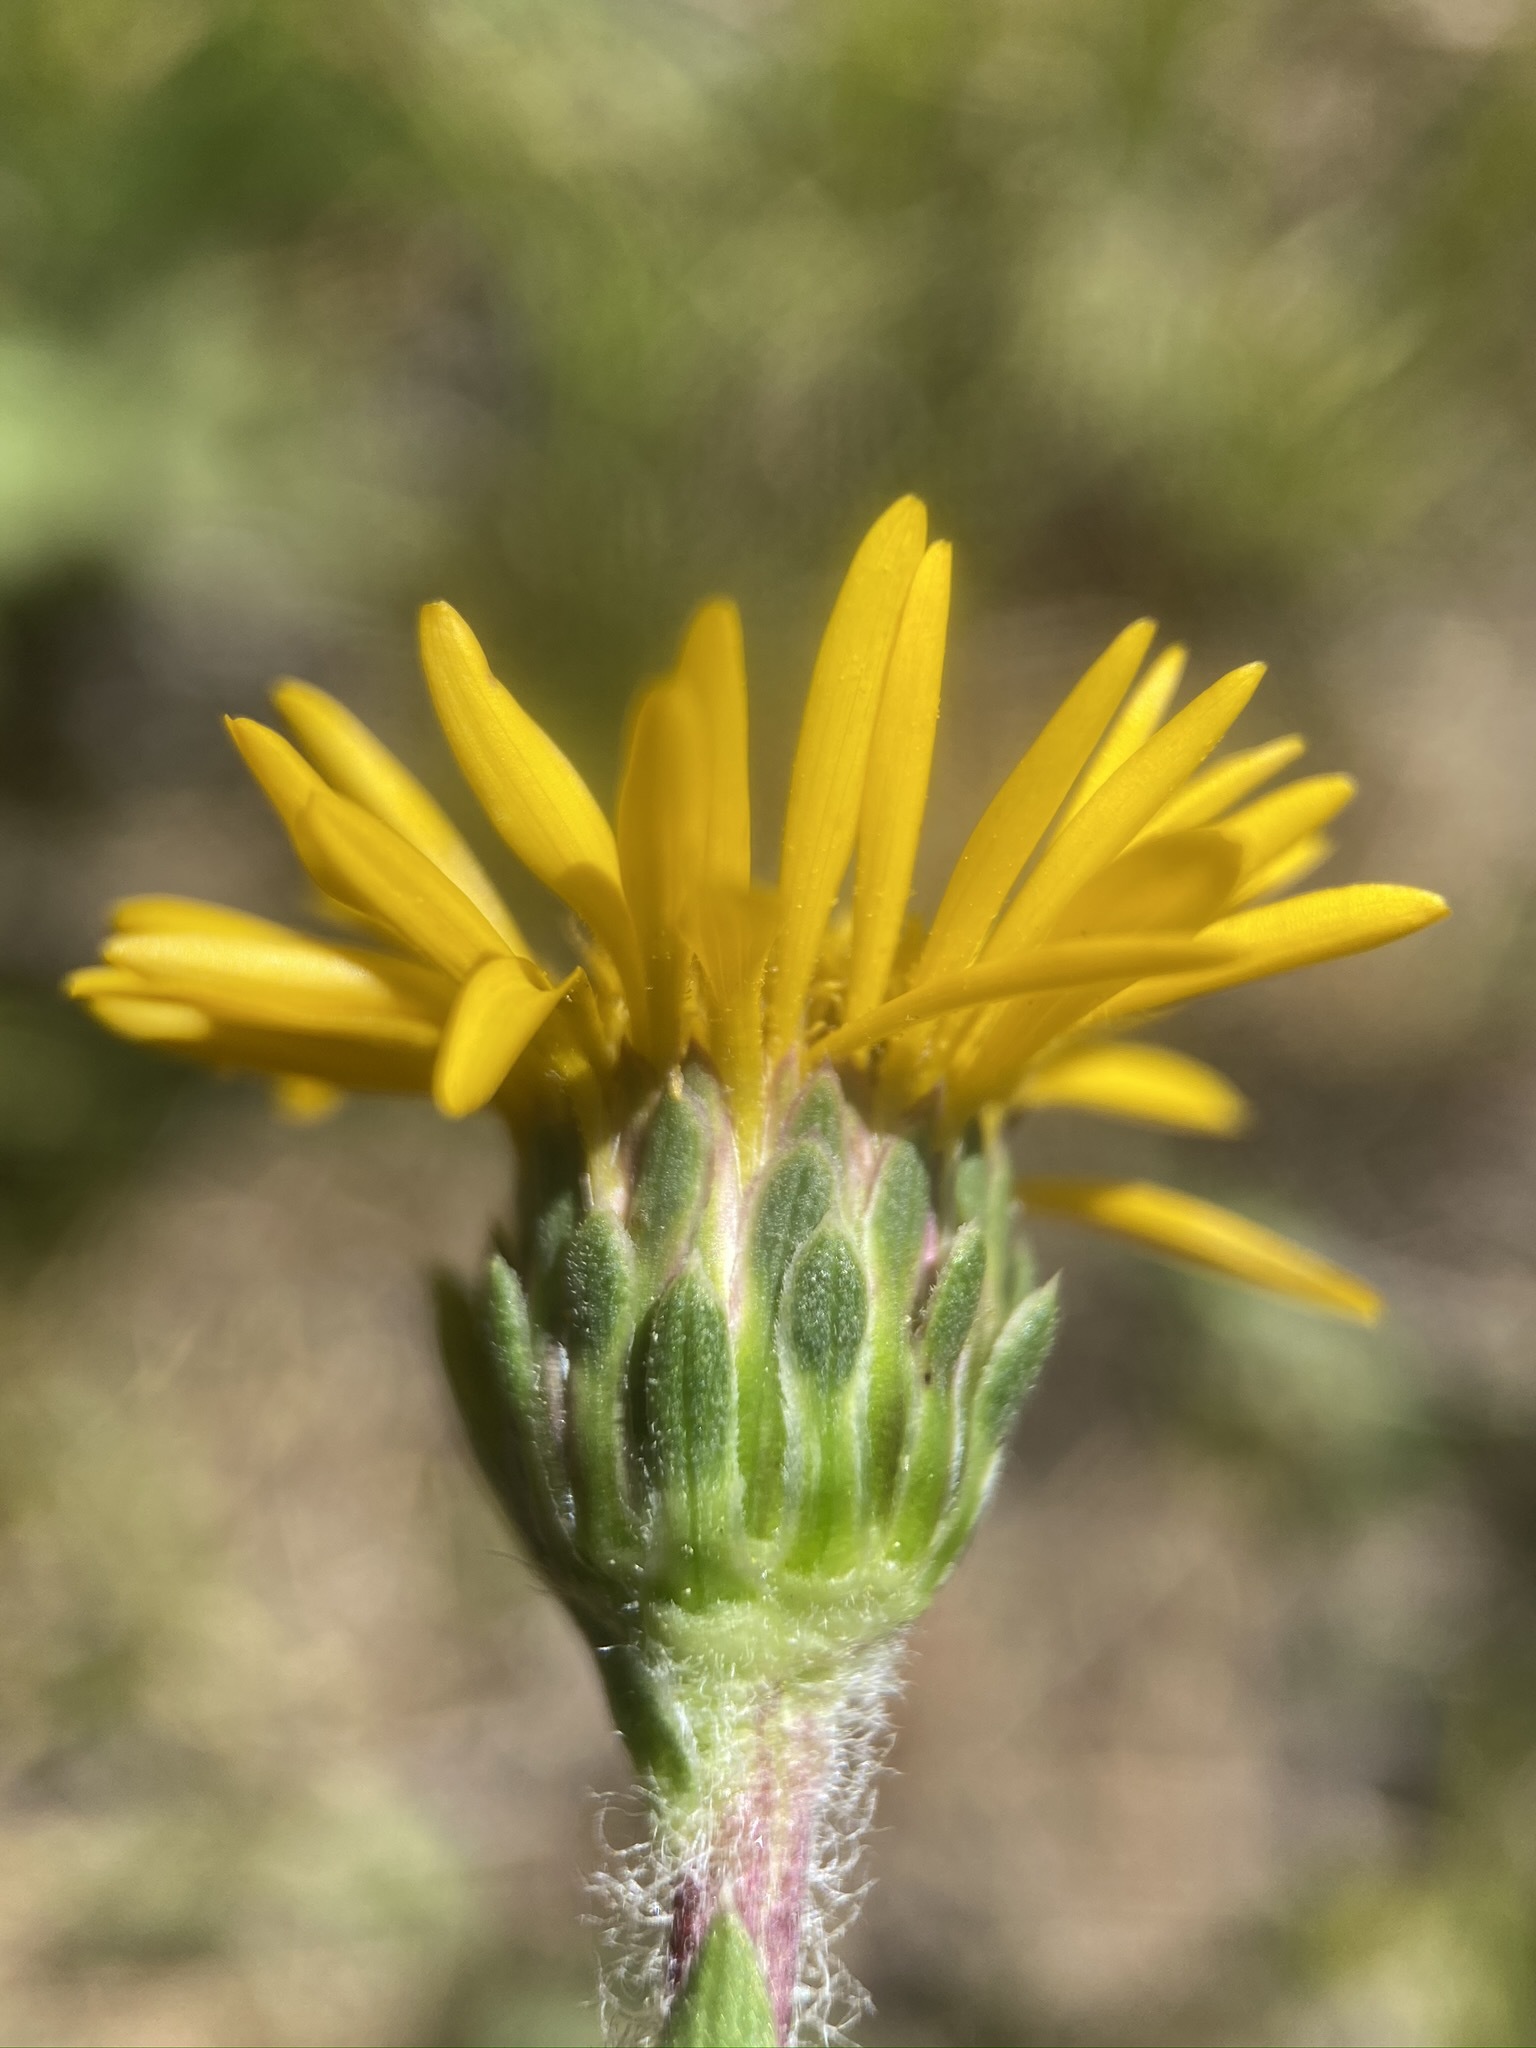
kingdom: Plantae
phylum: Tracheophyta
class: Magnoliopsida
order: Asterales
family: Asteraceae
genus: Pyrrocoma
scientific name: Pyrrocoma apargioides
